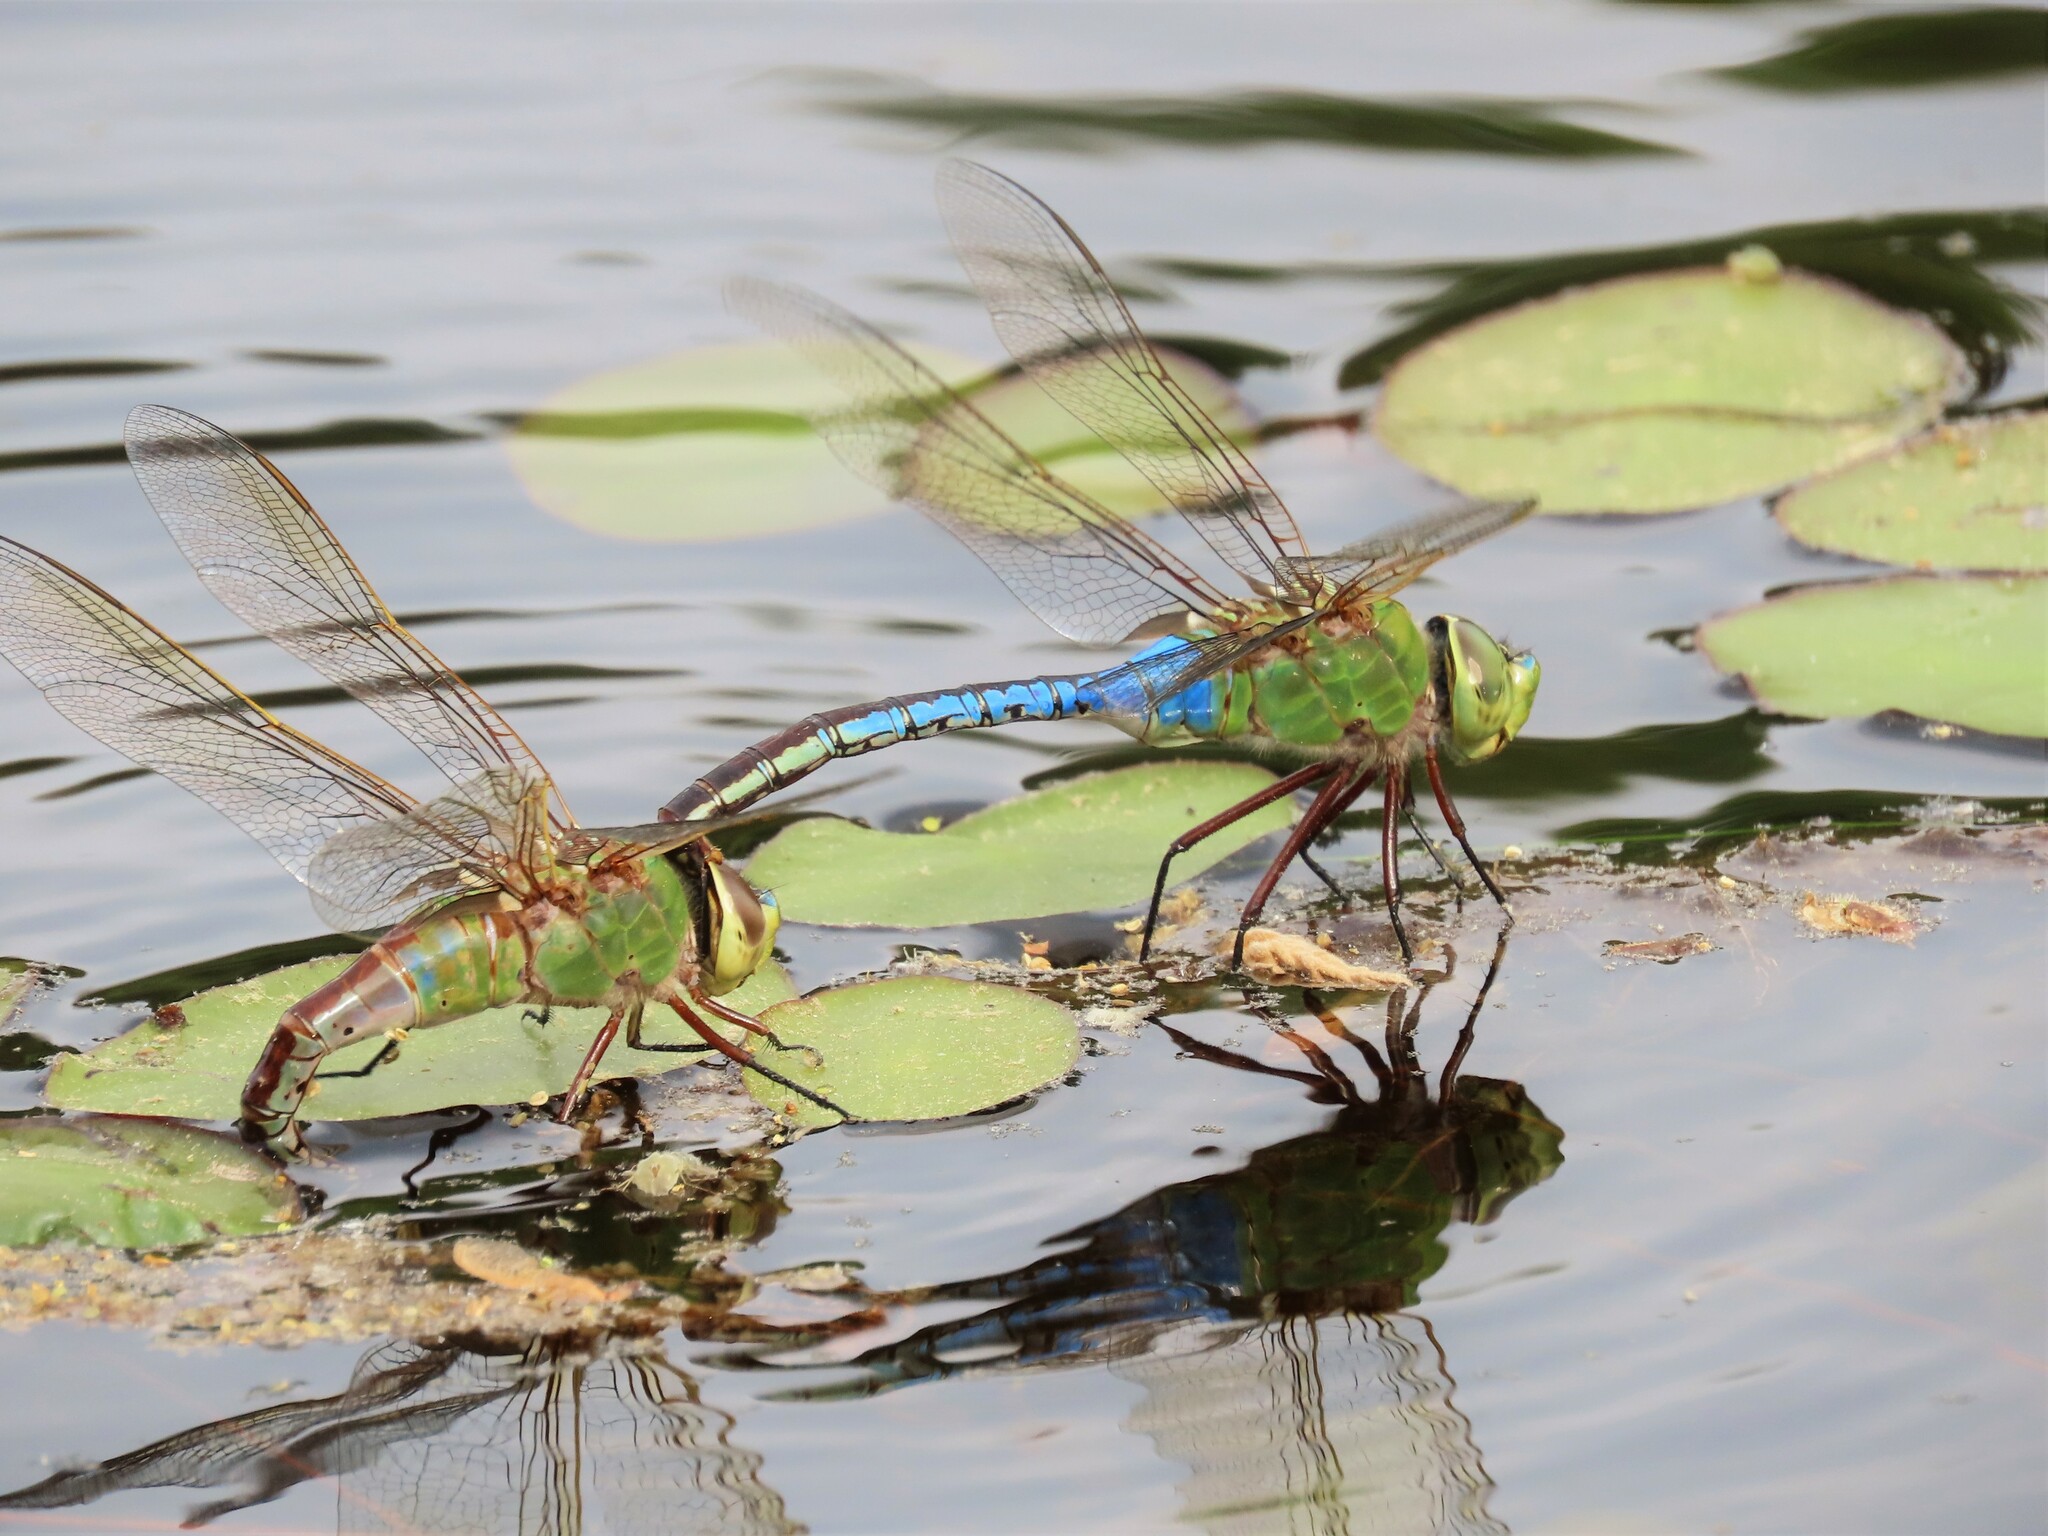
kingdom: Animalia
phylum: Arthropoda
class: Insecta
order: Odonata
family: Aeshnidae
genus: Anax
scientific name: Anax junius
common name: Common green darner
